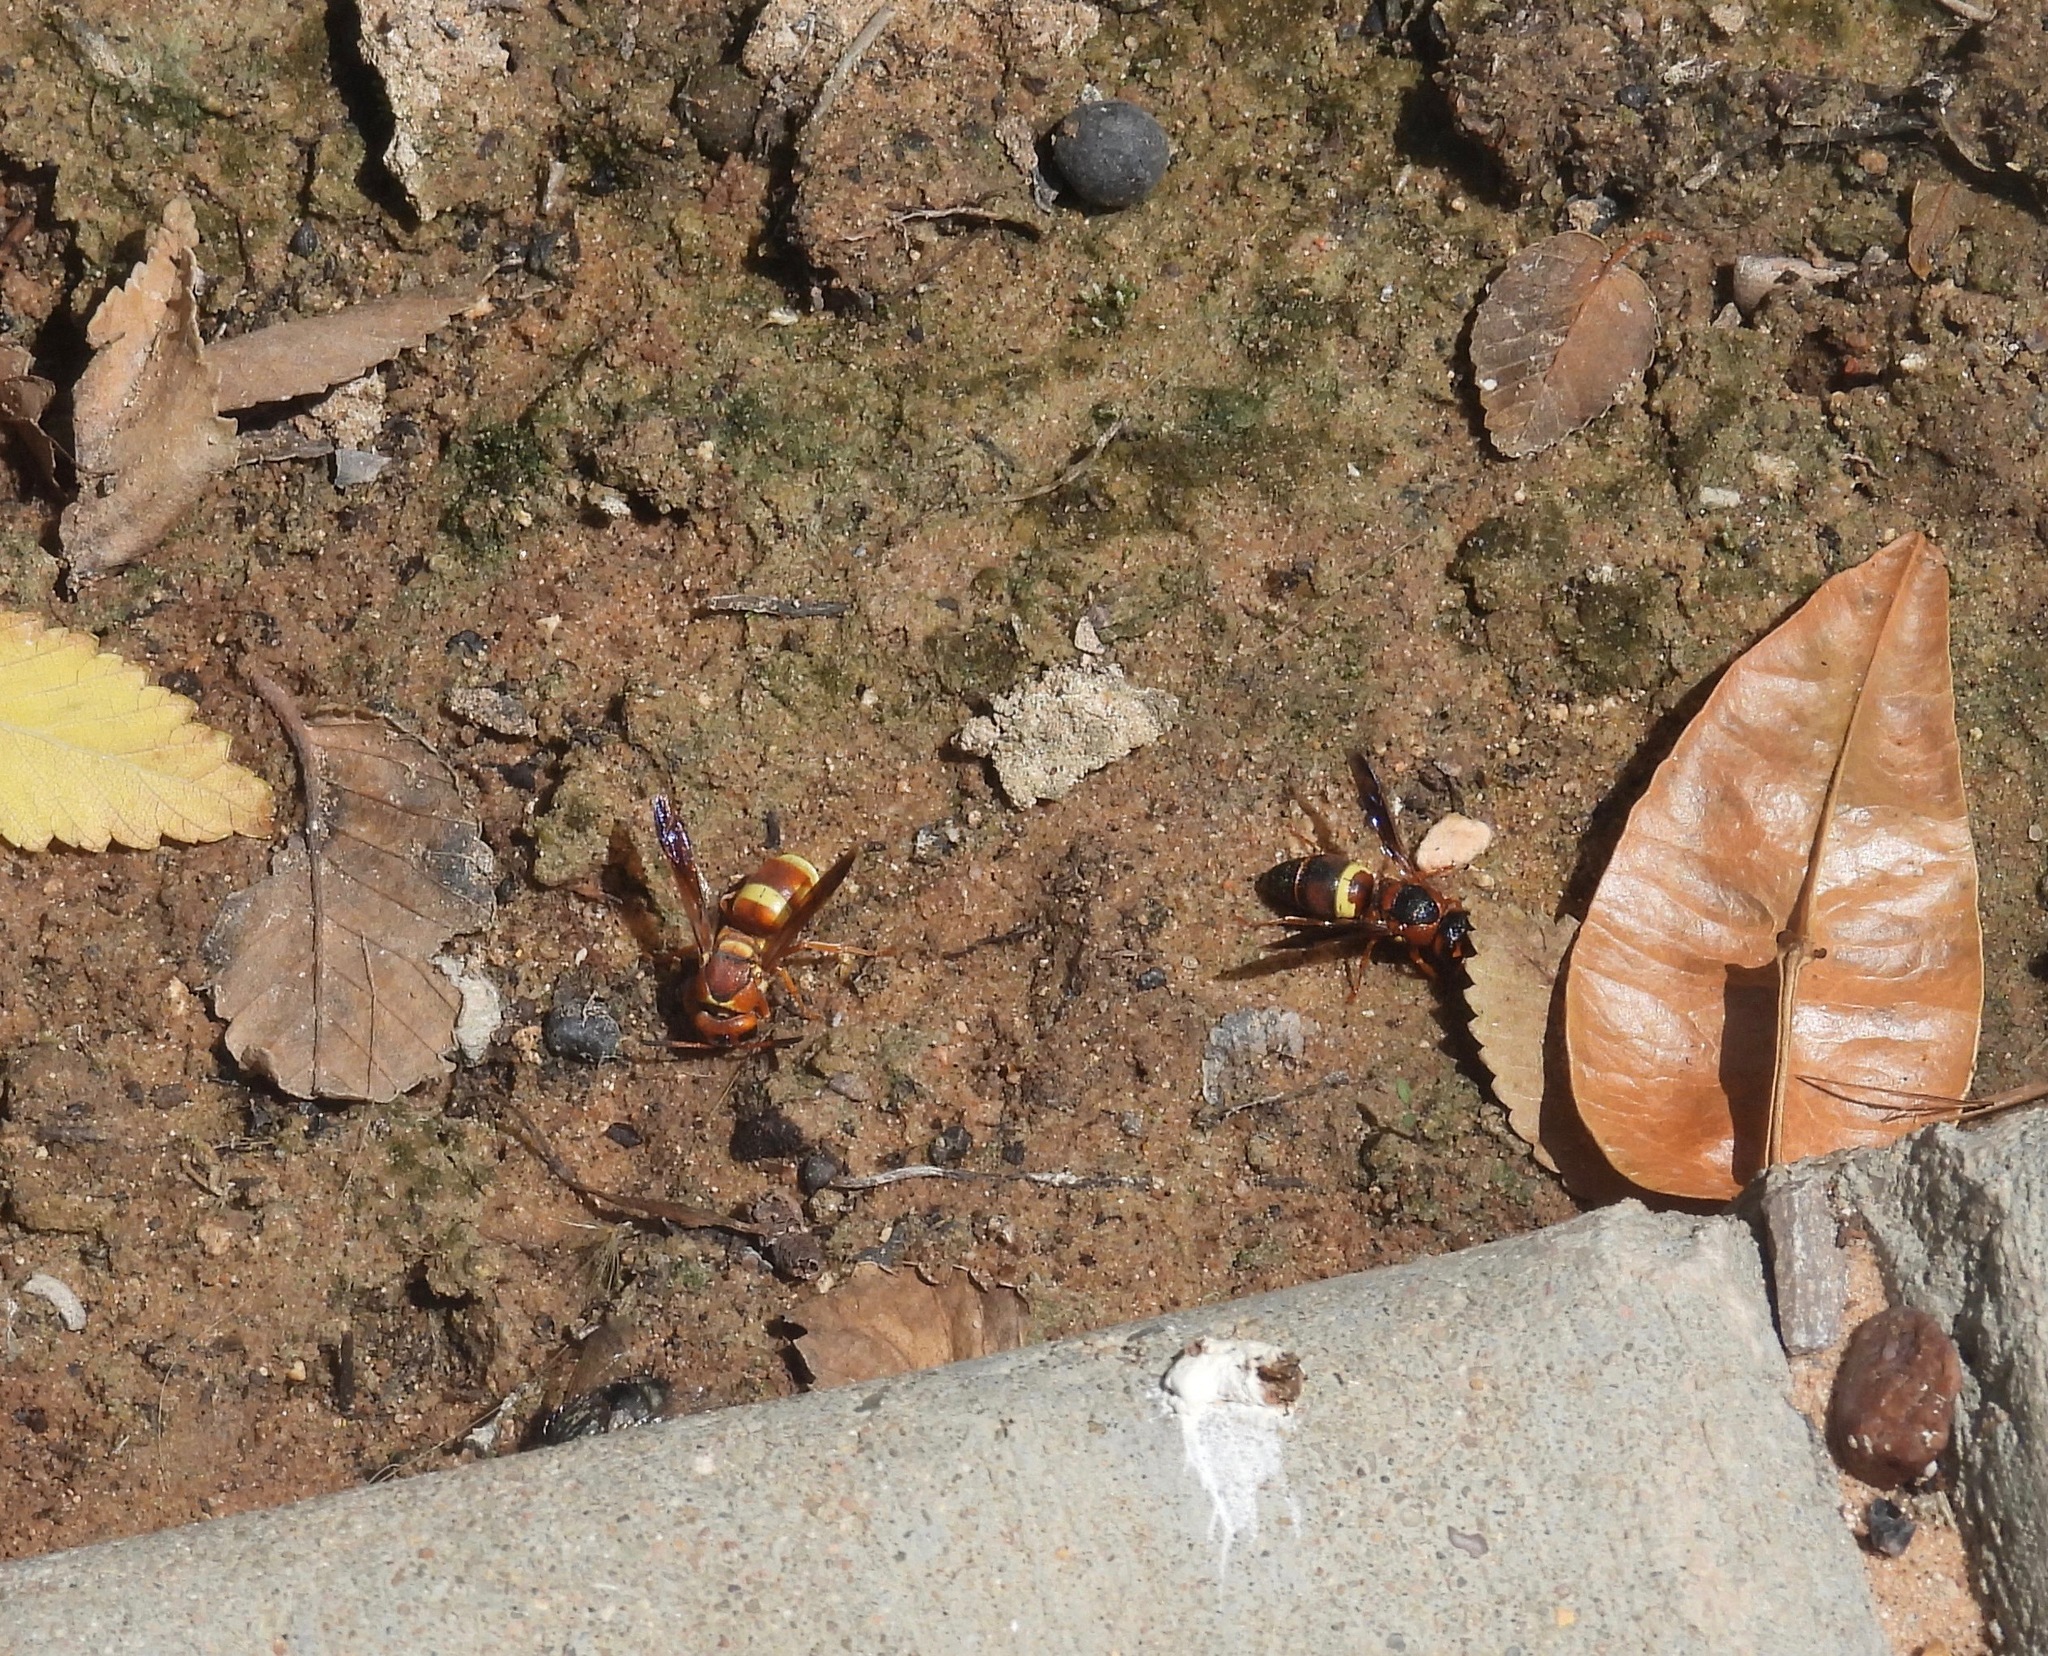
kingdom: Animalia
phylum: Arthropoda
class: Insecta
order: Hymenoptera
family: Eumenidae
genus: Euodynerus
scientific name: Euodynerus crypticus
